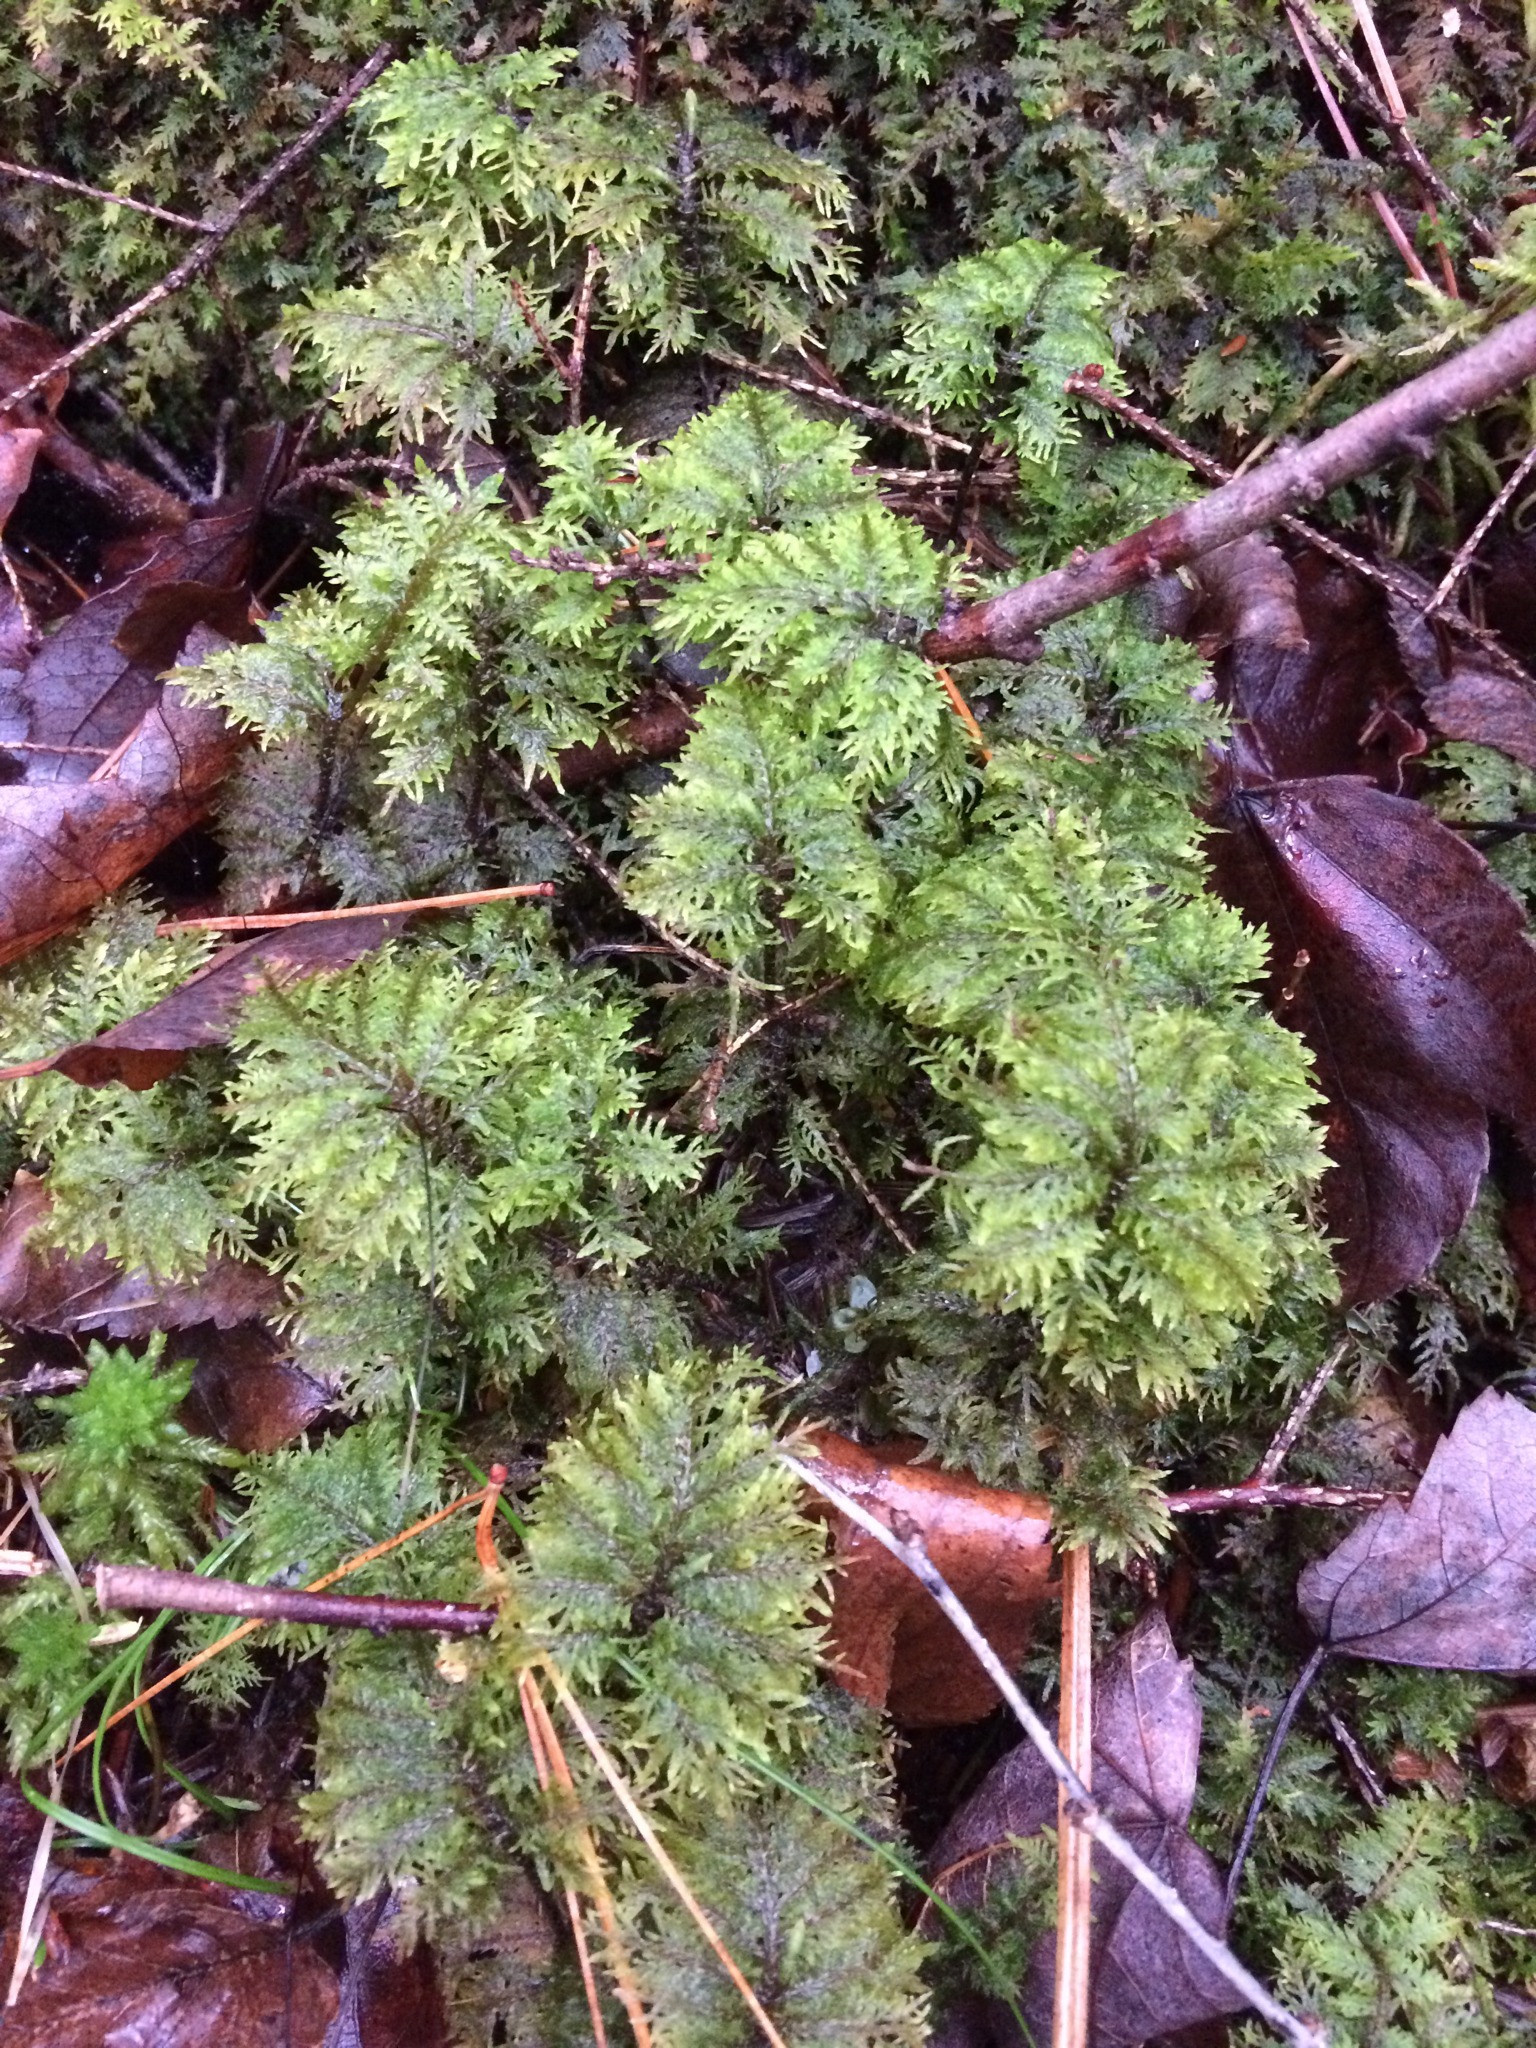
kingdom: Plantae
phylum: Bryophyta
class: Bryopsida
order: Hypnales
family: Hylocomiaceae
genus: Hylocomium
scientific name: Hylocomium splendens
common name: Stairstep moss
